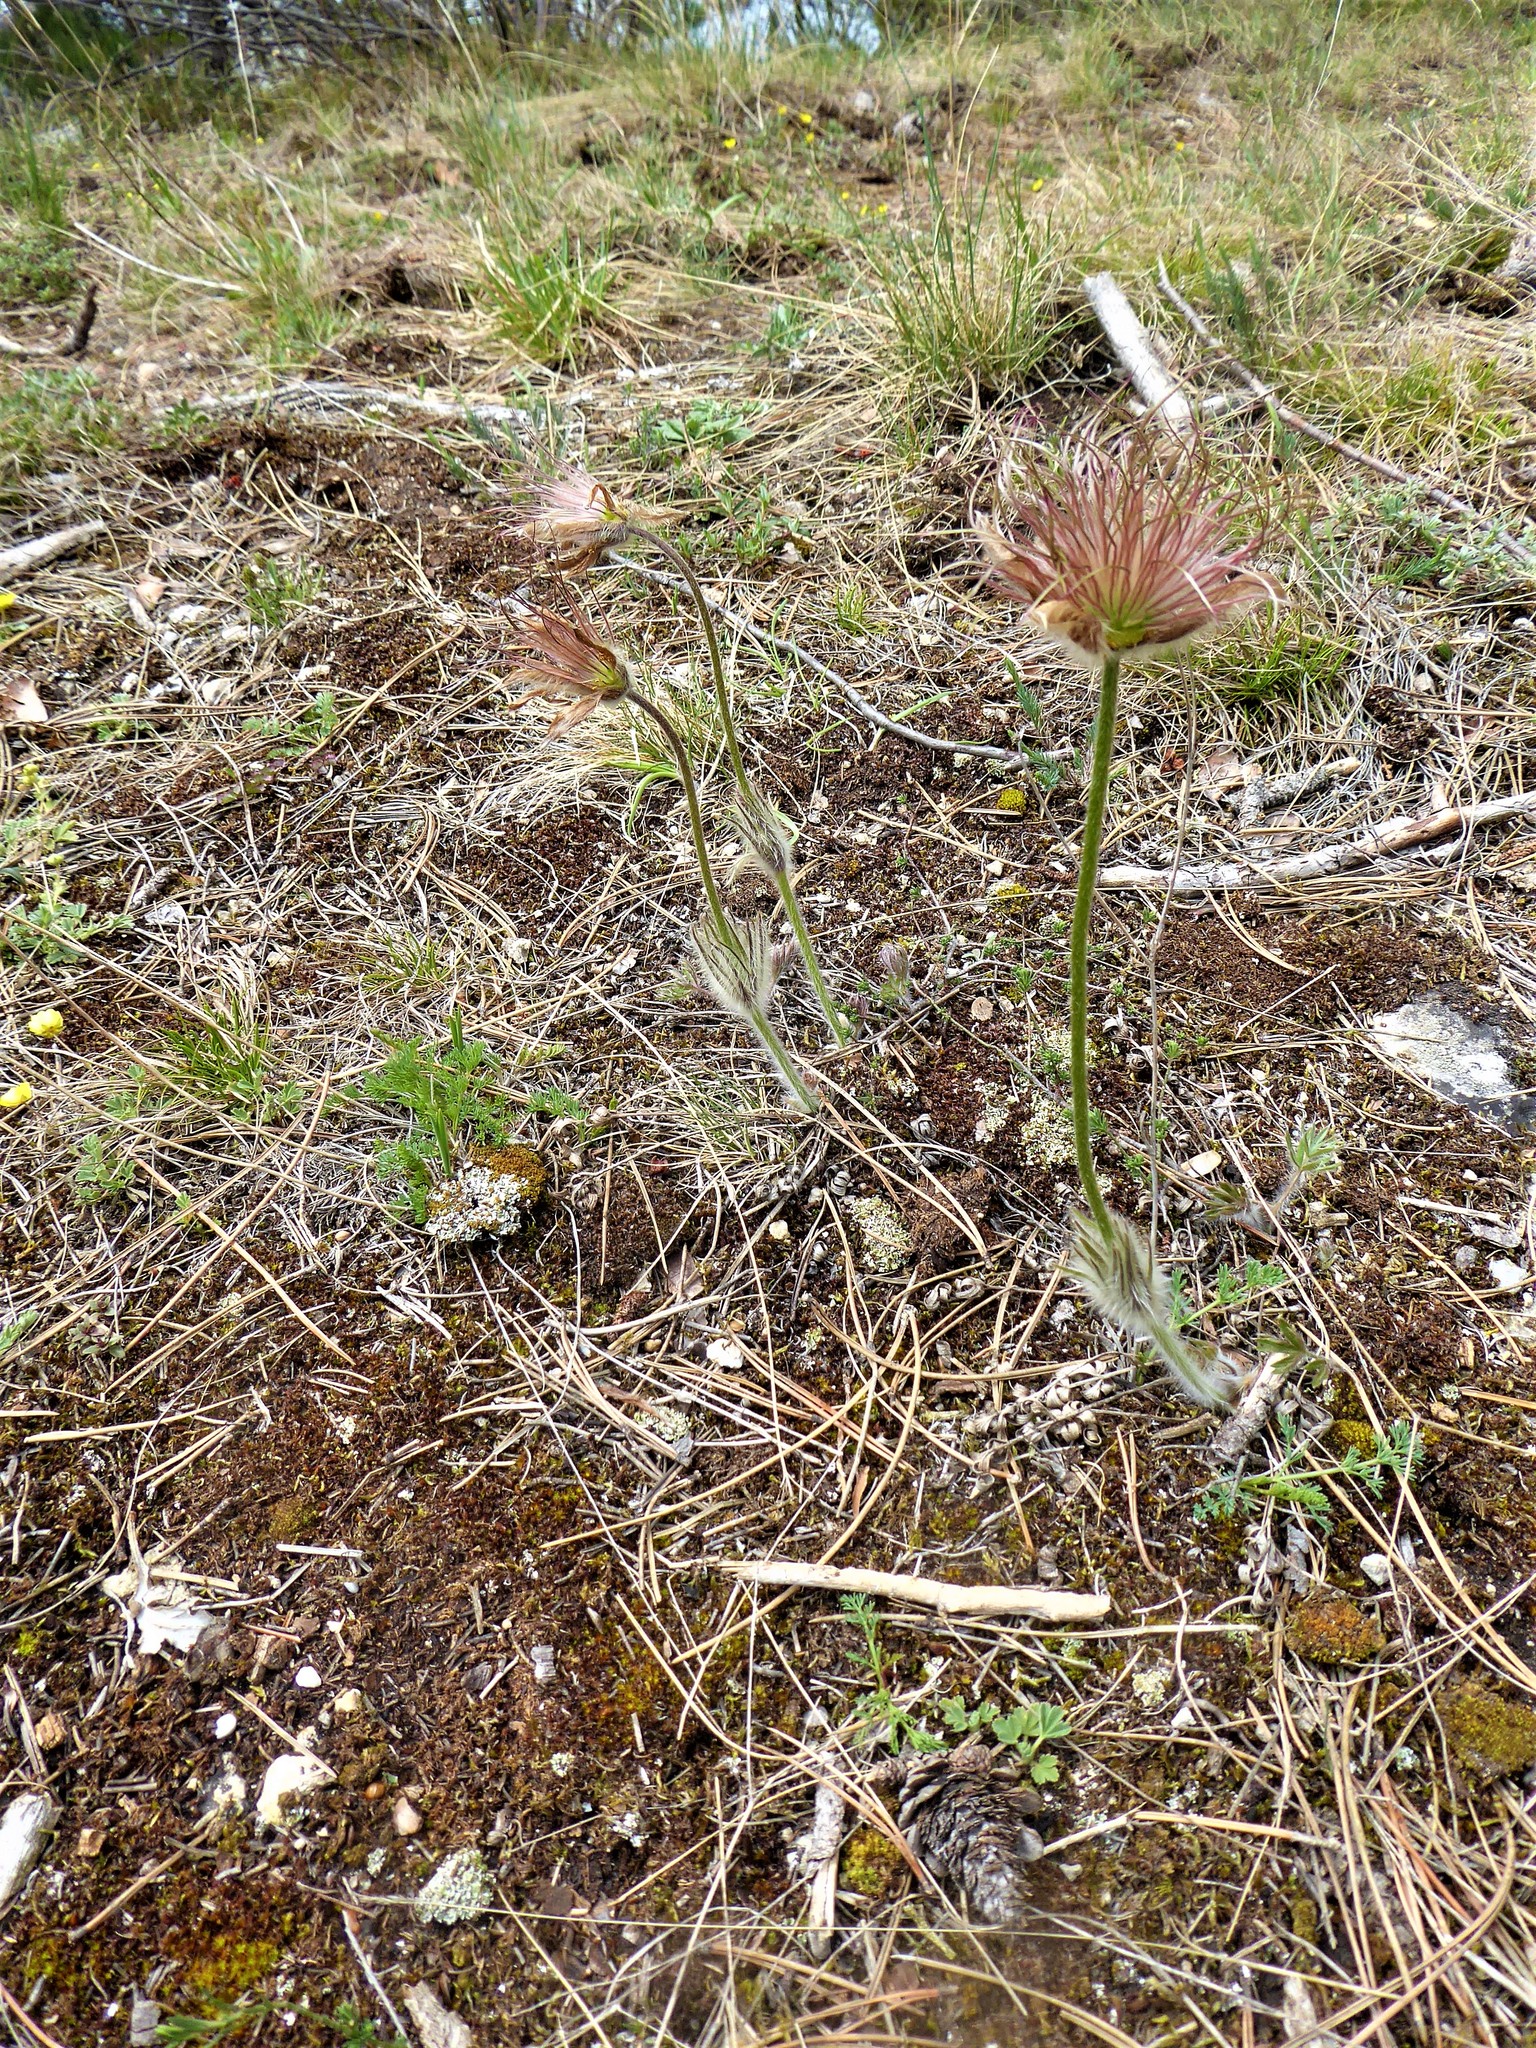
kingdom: Plantae
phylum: Tracheophyta
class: Magnoliopsida
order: Ranunculales
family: Ranunculaceae
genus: Pulsatilla
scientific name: Pulsatilla grandis
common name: Greater pasque flower
